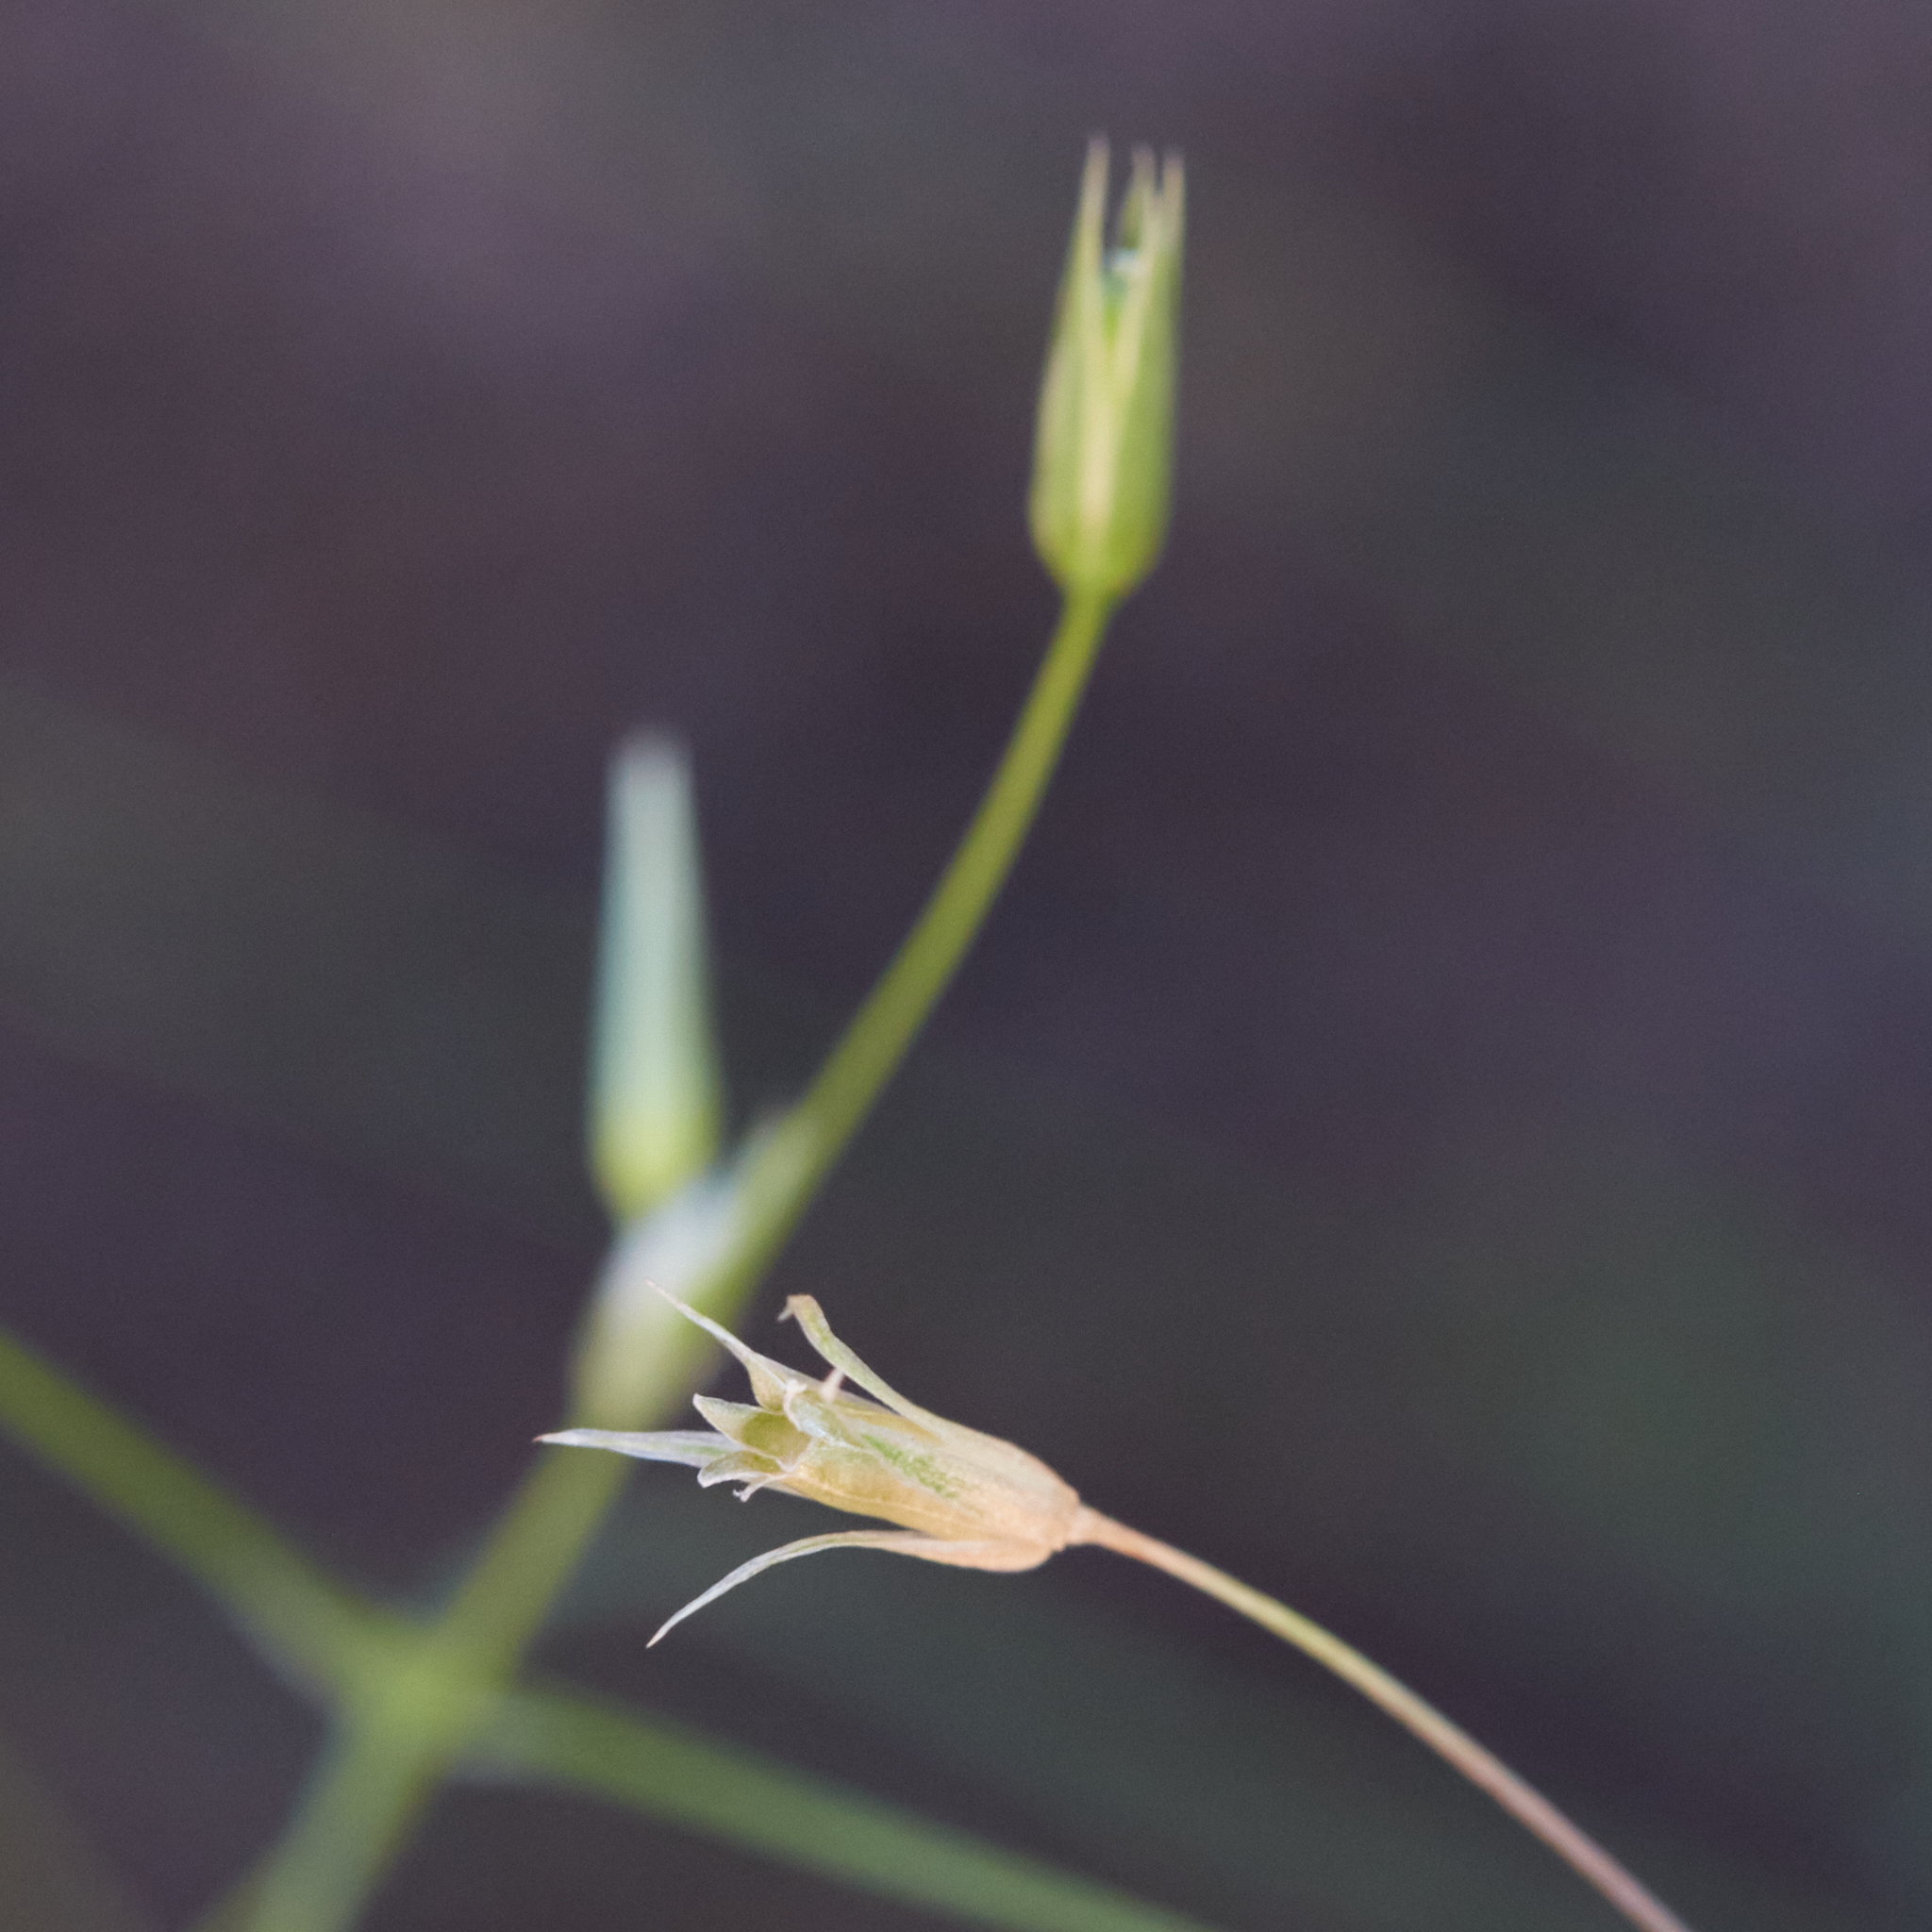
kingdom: Plantae
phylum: Tracheophyta
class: Magnoliopsida
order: Caryophyllales
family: Caryophyllaceae
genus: Stellaria
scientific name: Stellaria nitens
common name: Shining starwort
